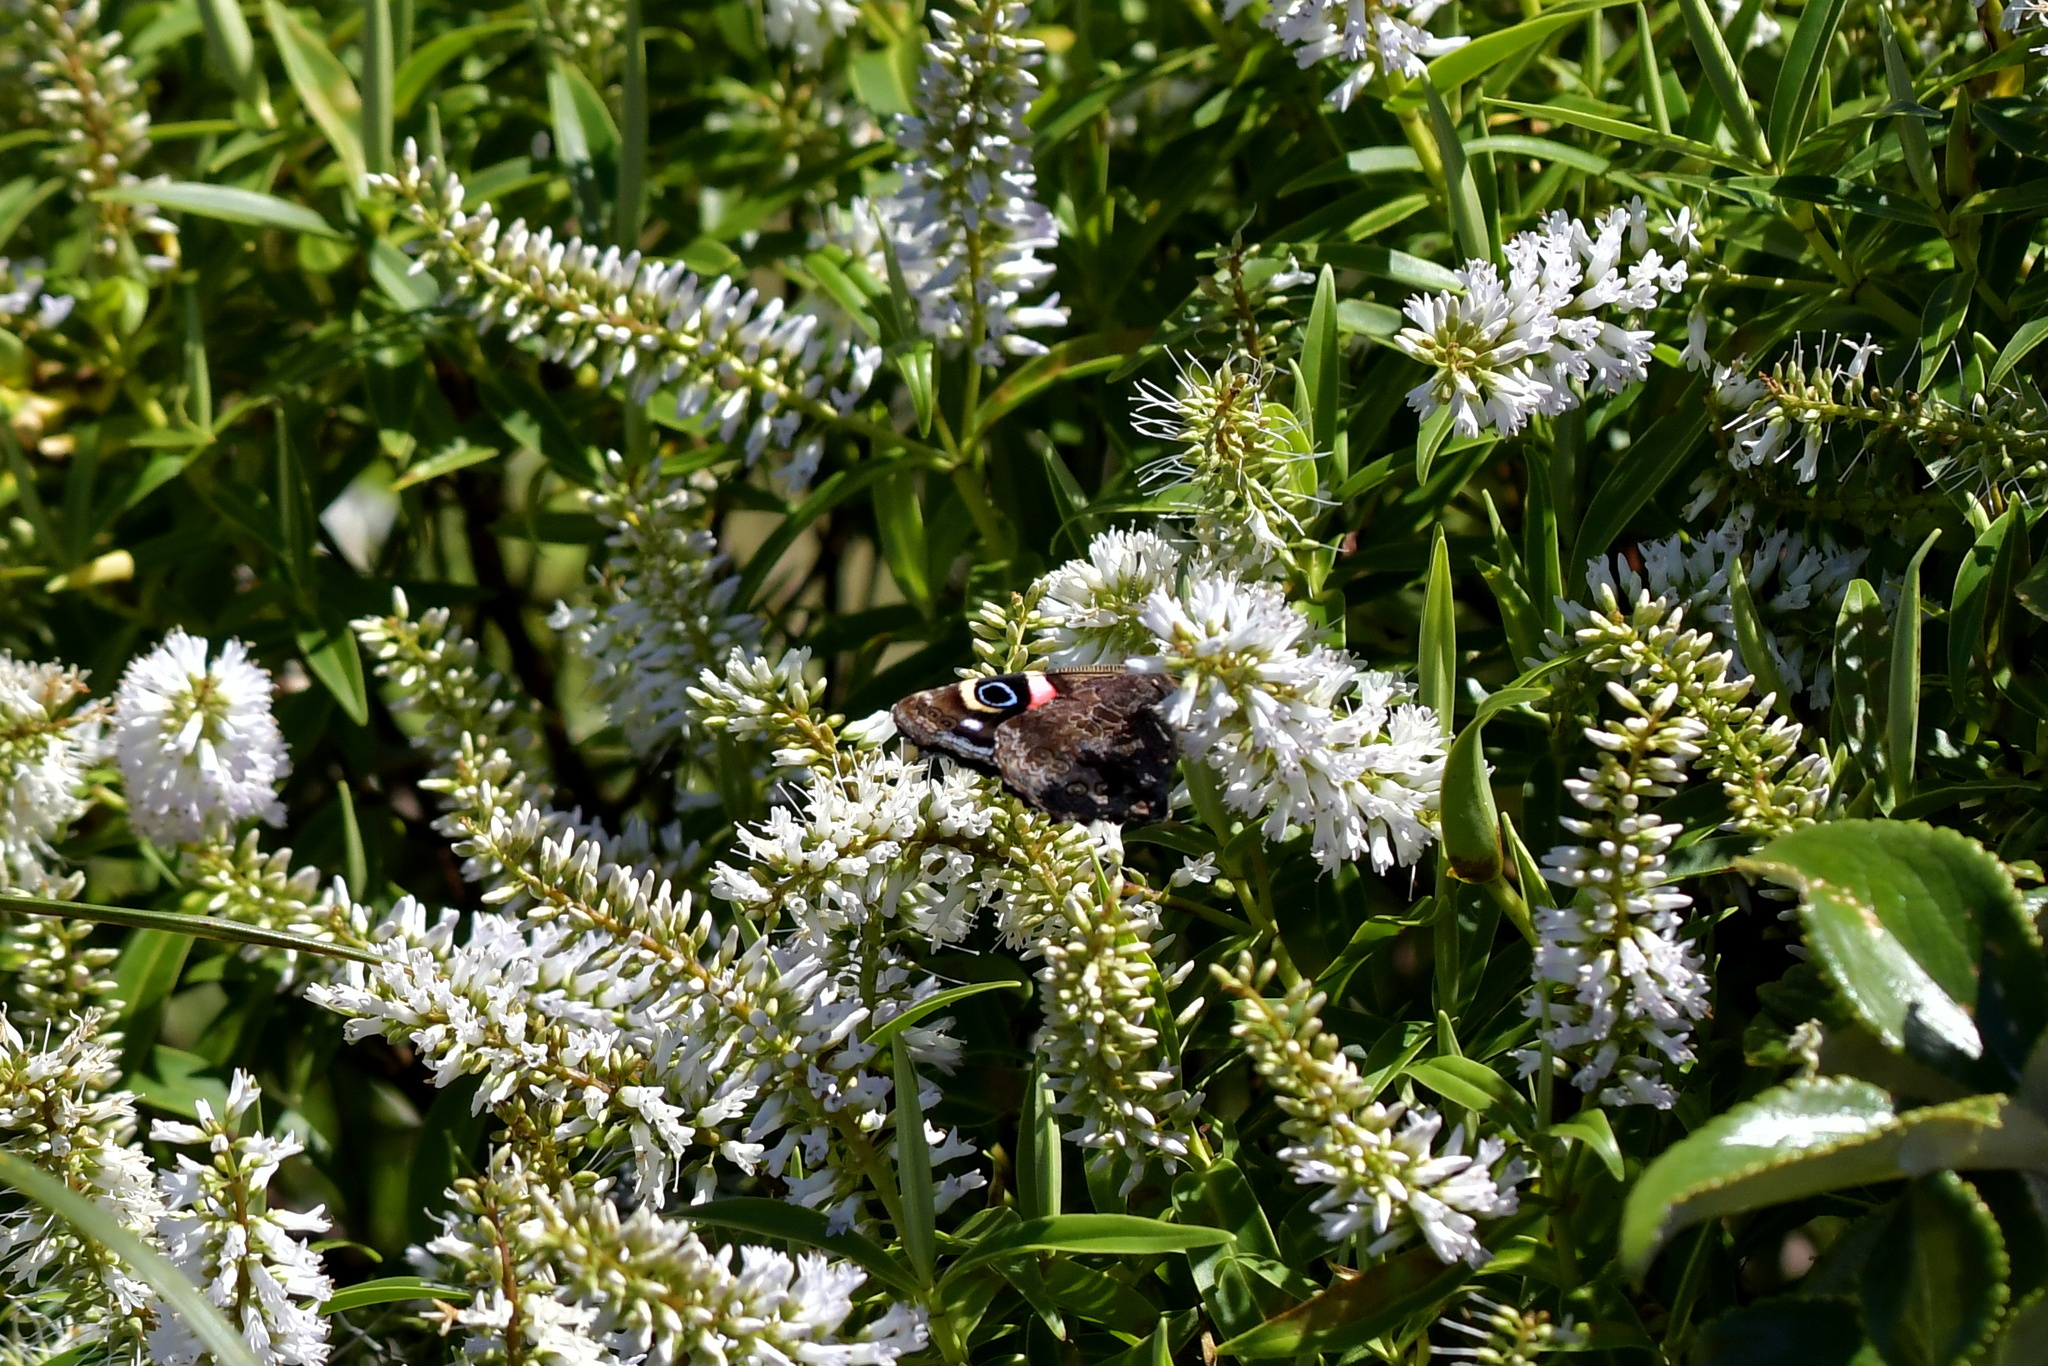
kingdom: Animalia
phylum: Arthropoda
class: Insecta
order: Lepidoptera
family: Nymphalidae
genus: Vanessa
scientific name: Vanessa gonerilla
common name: New zealand red admiral
